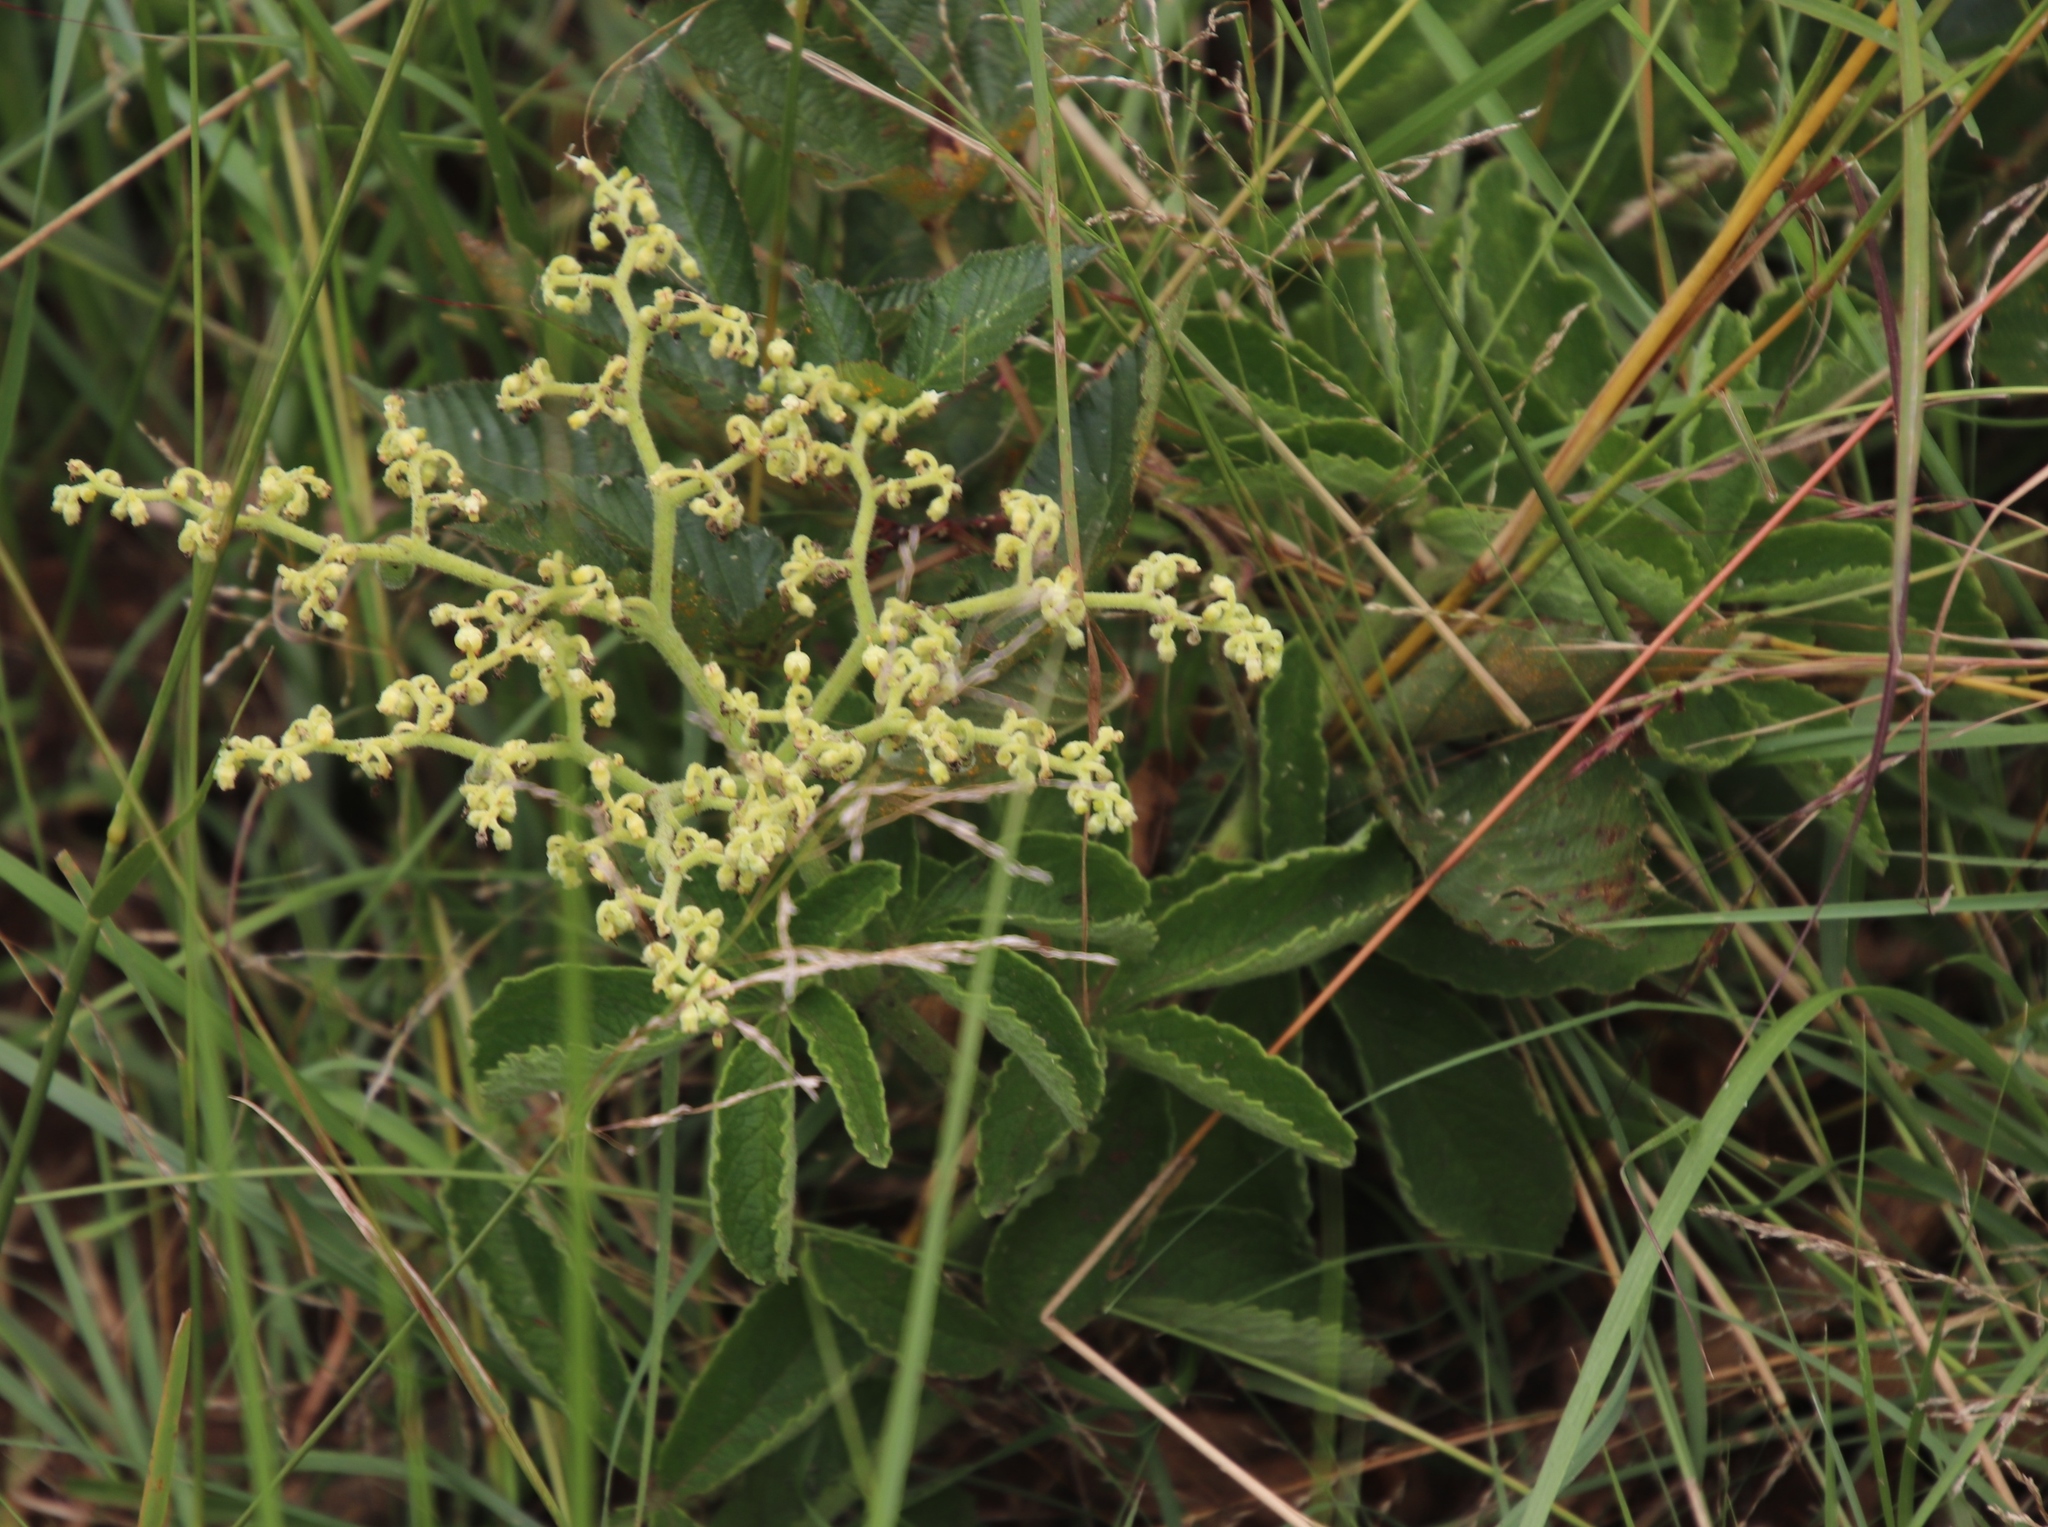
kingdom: Plantae
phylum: Tracheophyta
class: Magnoliopsida
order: Vitales
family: Vitaceae
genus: Cyphostemma
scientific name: Cyphostemma simulans
